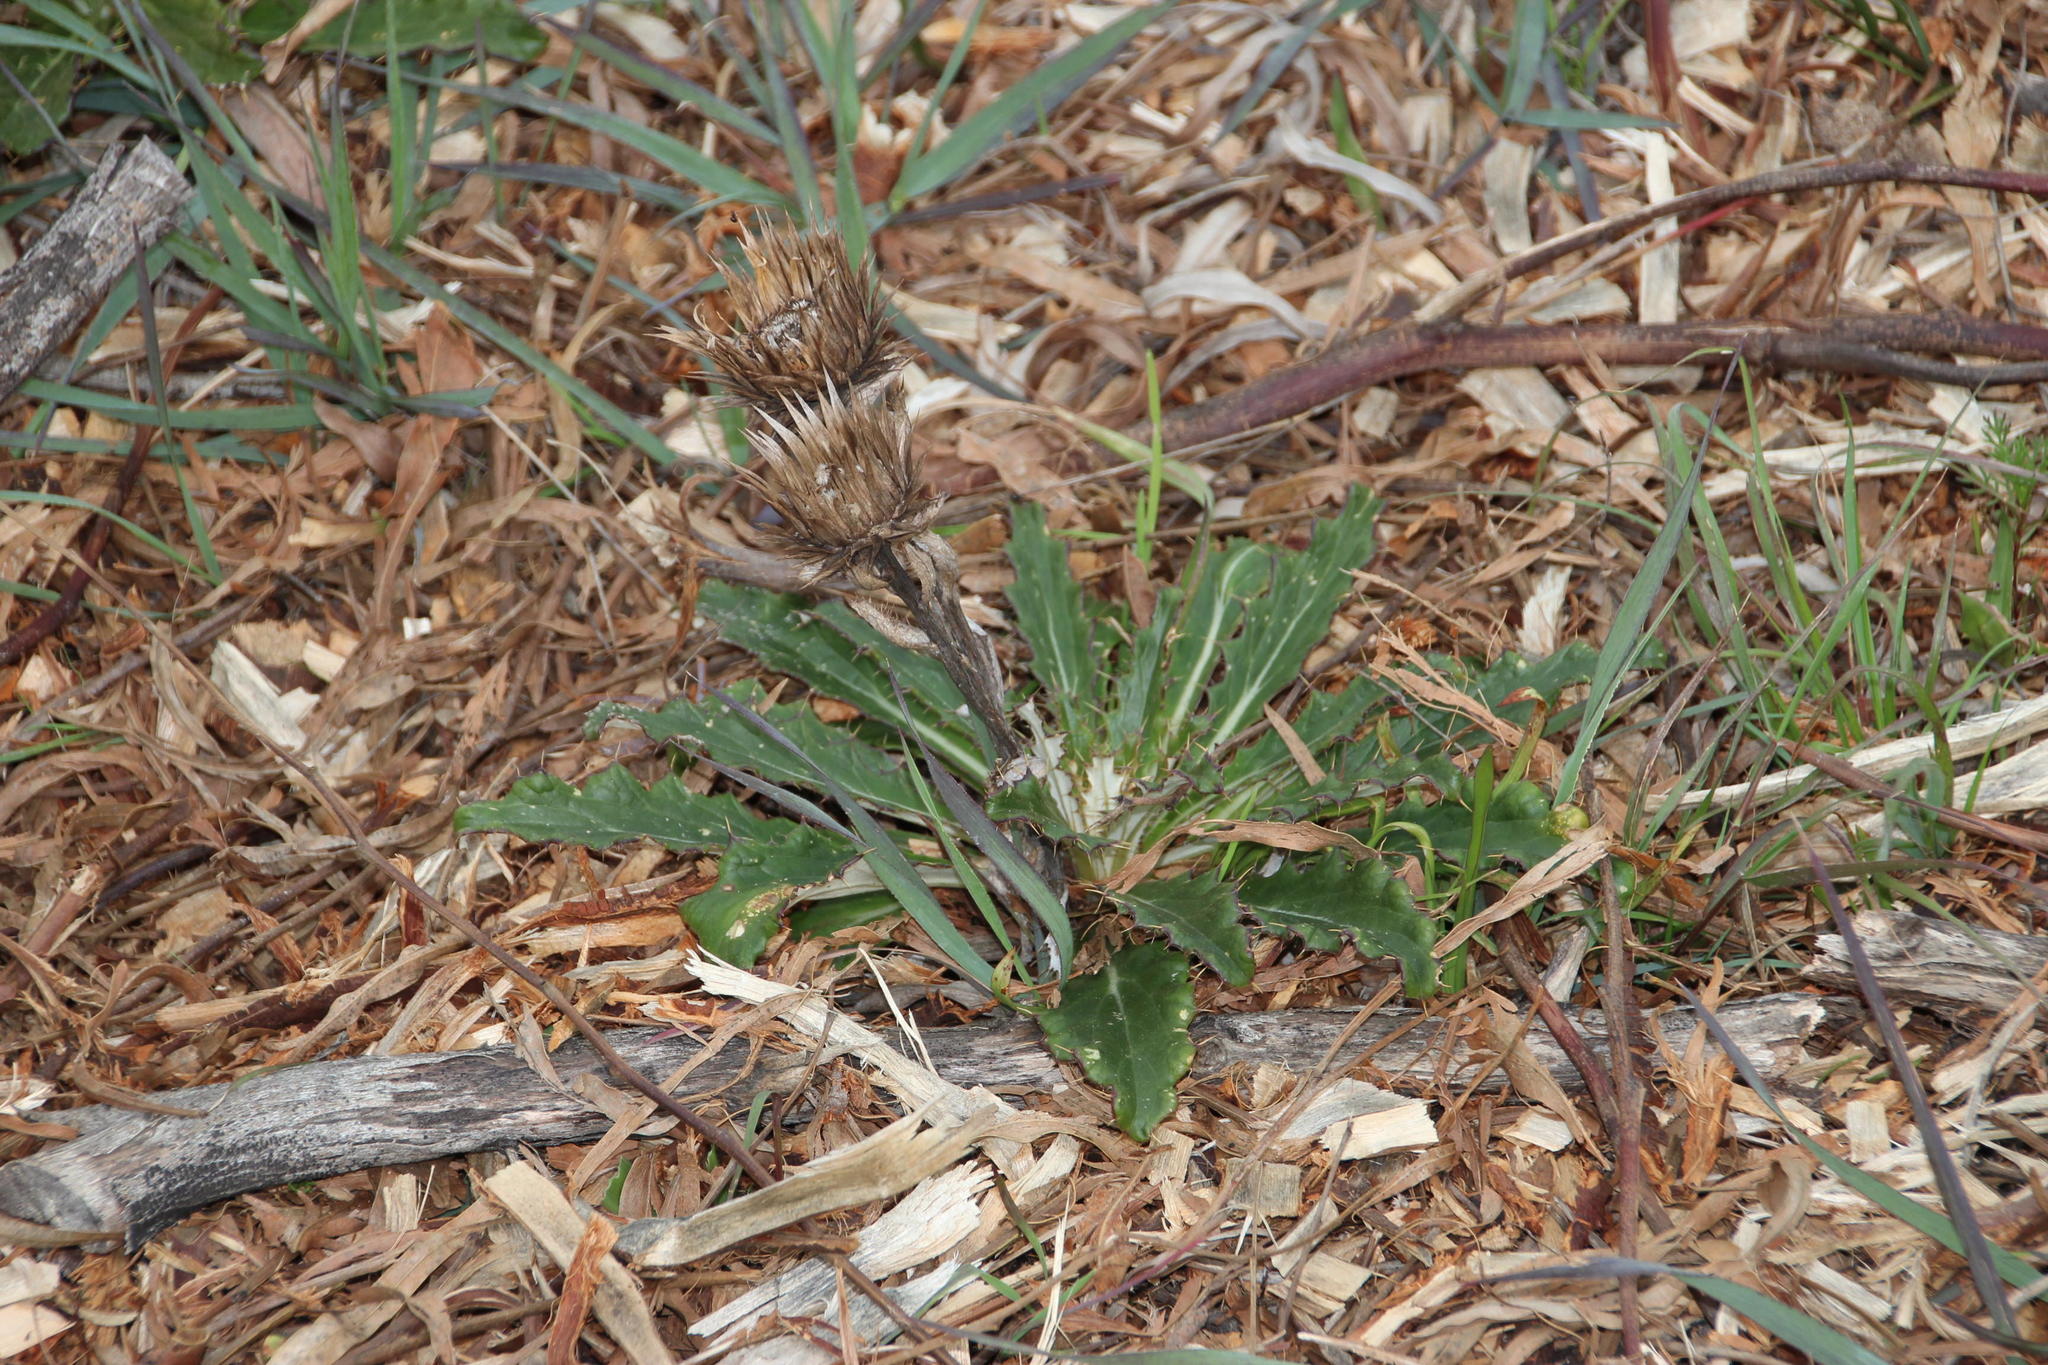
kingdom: Plantae
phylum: Tracheophyta
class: Magnoliopsida
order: Asterales
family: Asteraceae
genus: Berkheya
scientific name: Berkheya armata
